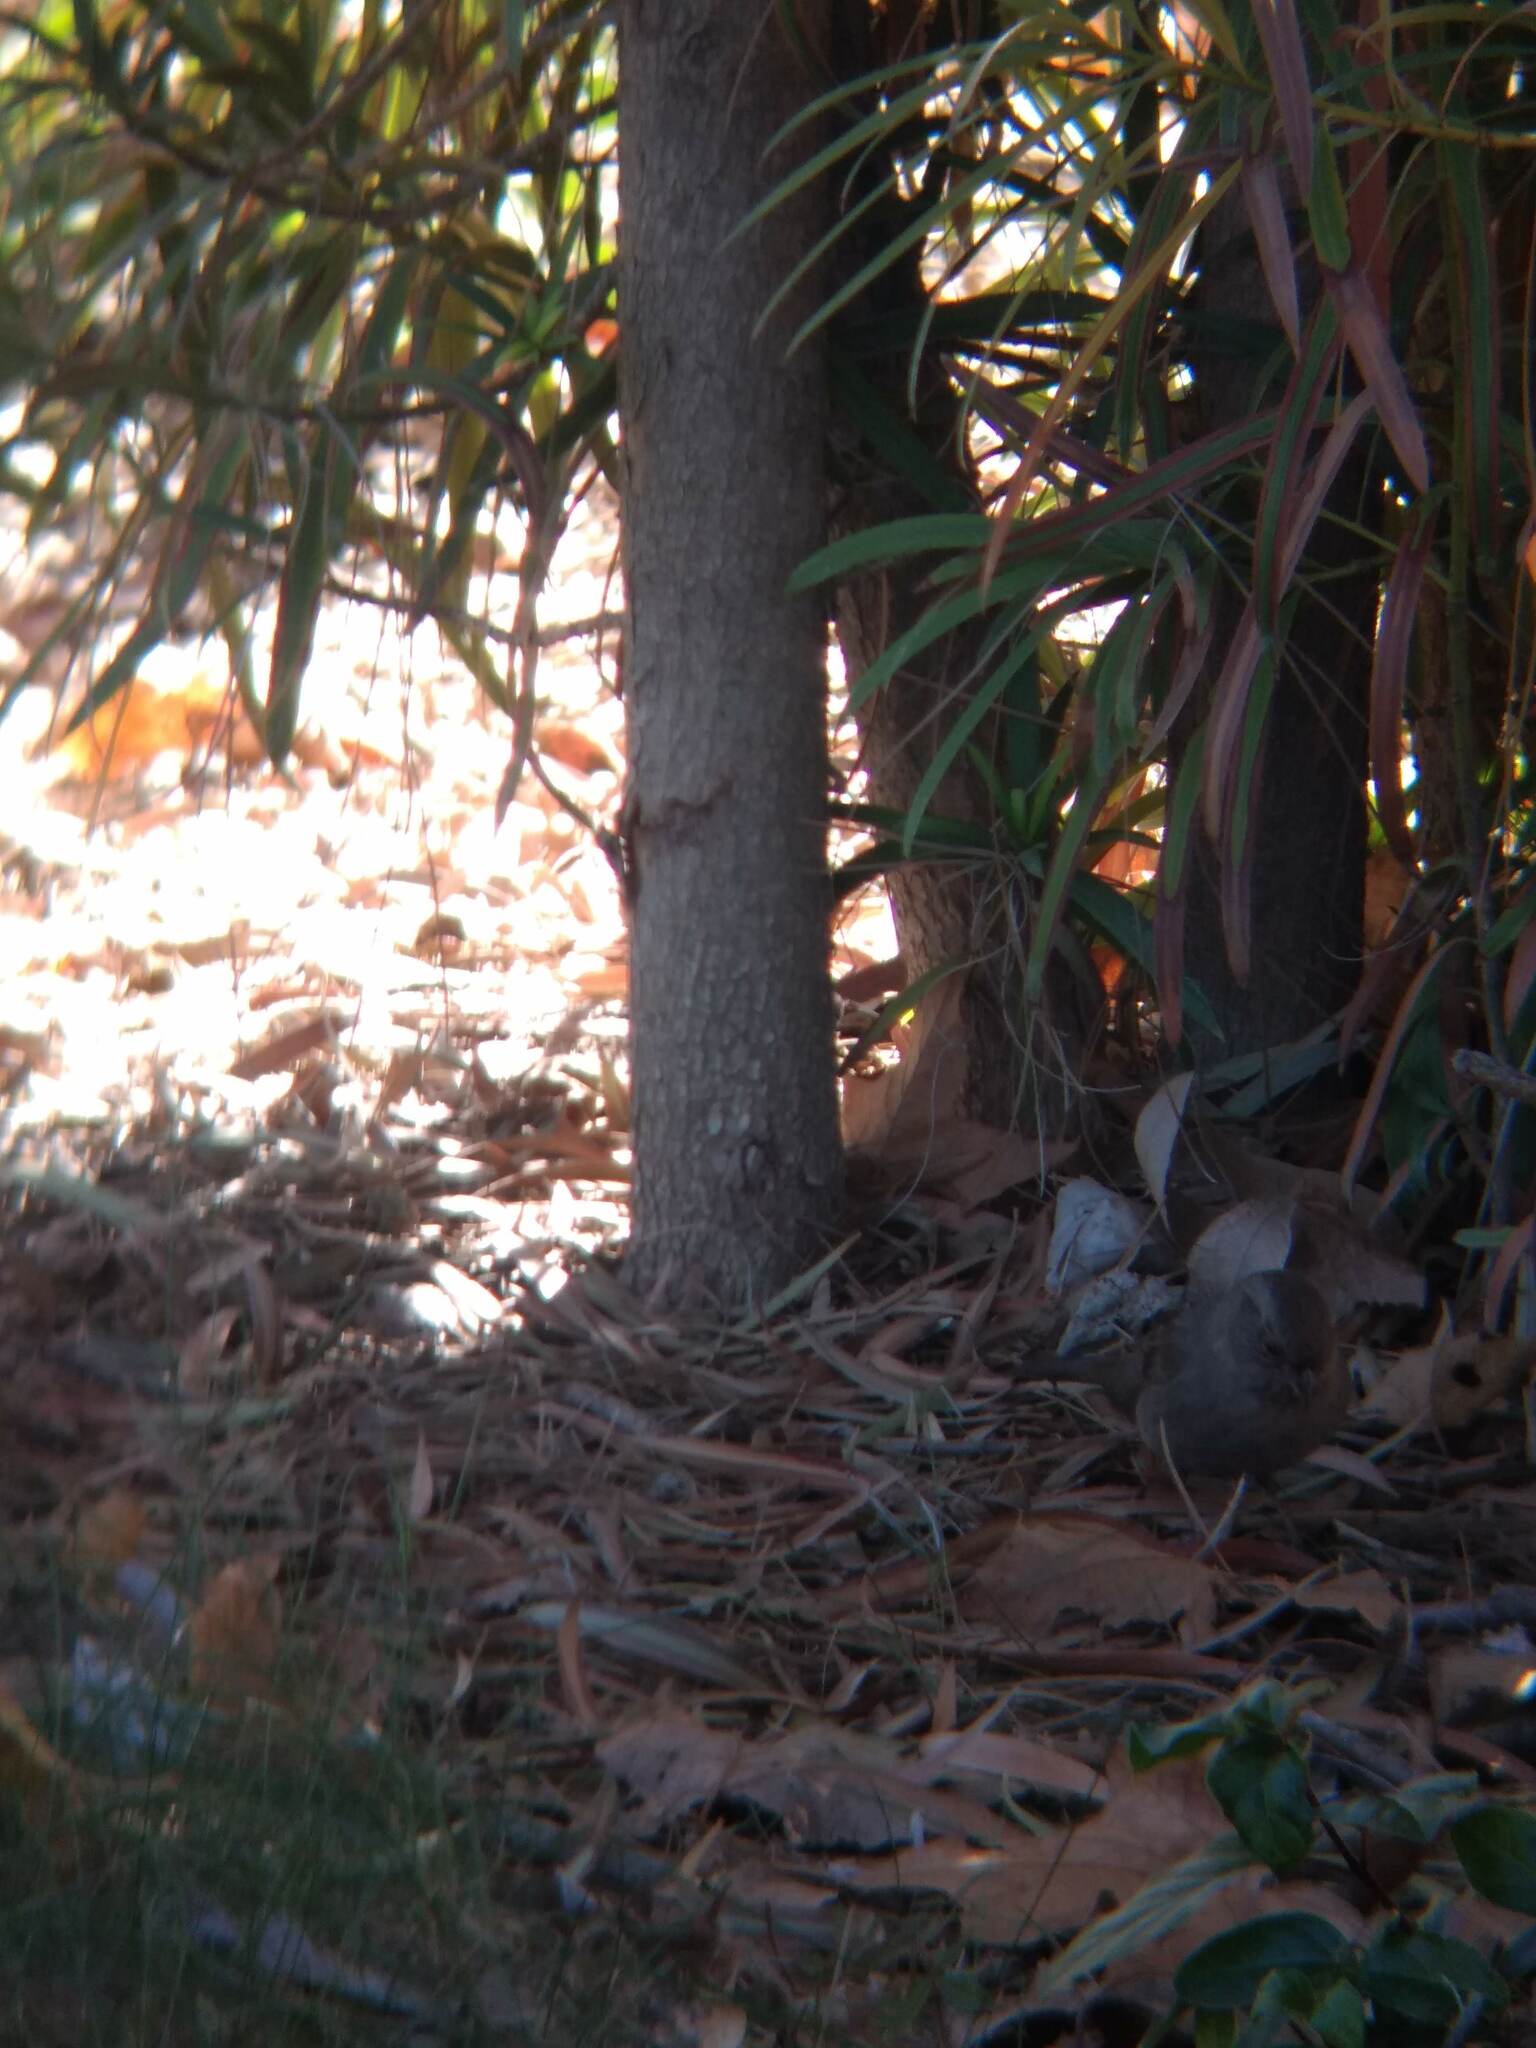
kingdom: Animalia
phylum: Chordata
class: Aves
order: Passeriformes
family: Passerellidae
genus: Melozone
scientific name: Melozone crissalis
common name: California towhee
